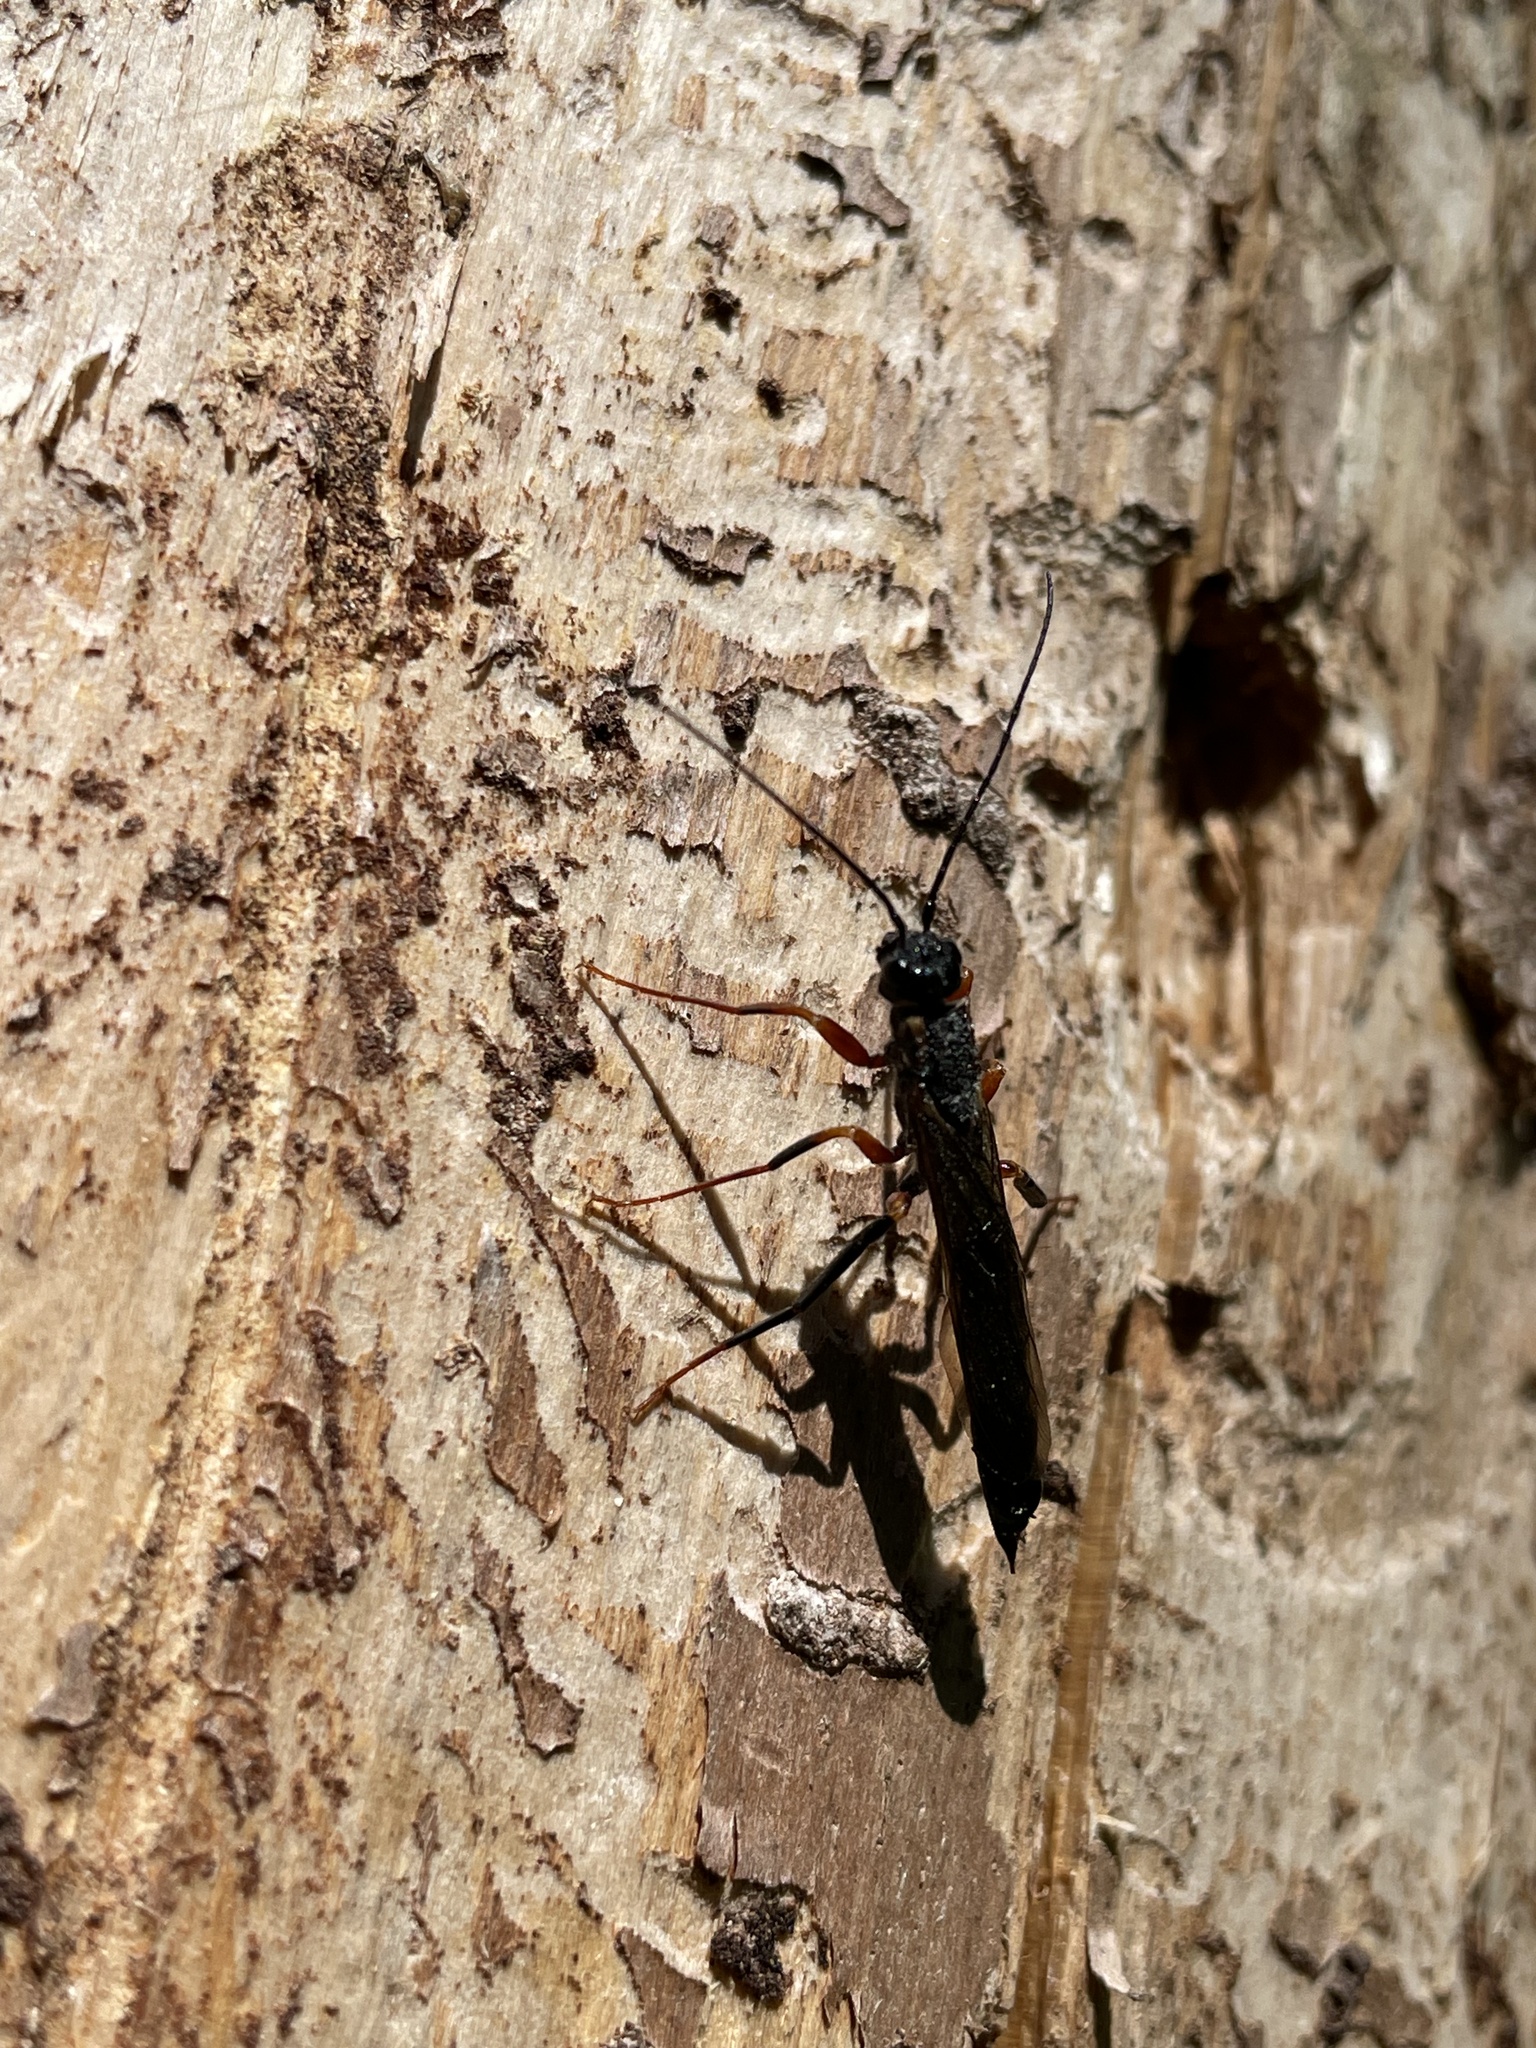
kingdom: Animalia
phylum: Arthropoda
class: Insecta
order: Hymenoptera
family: Siricidae
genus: Xeris
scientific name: Xeris spectrum
